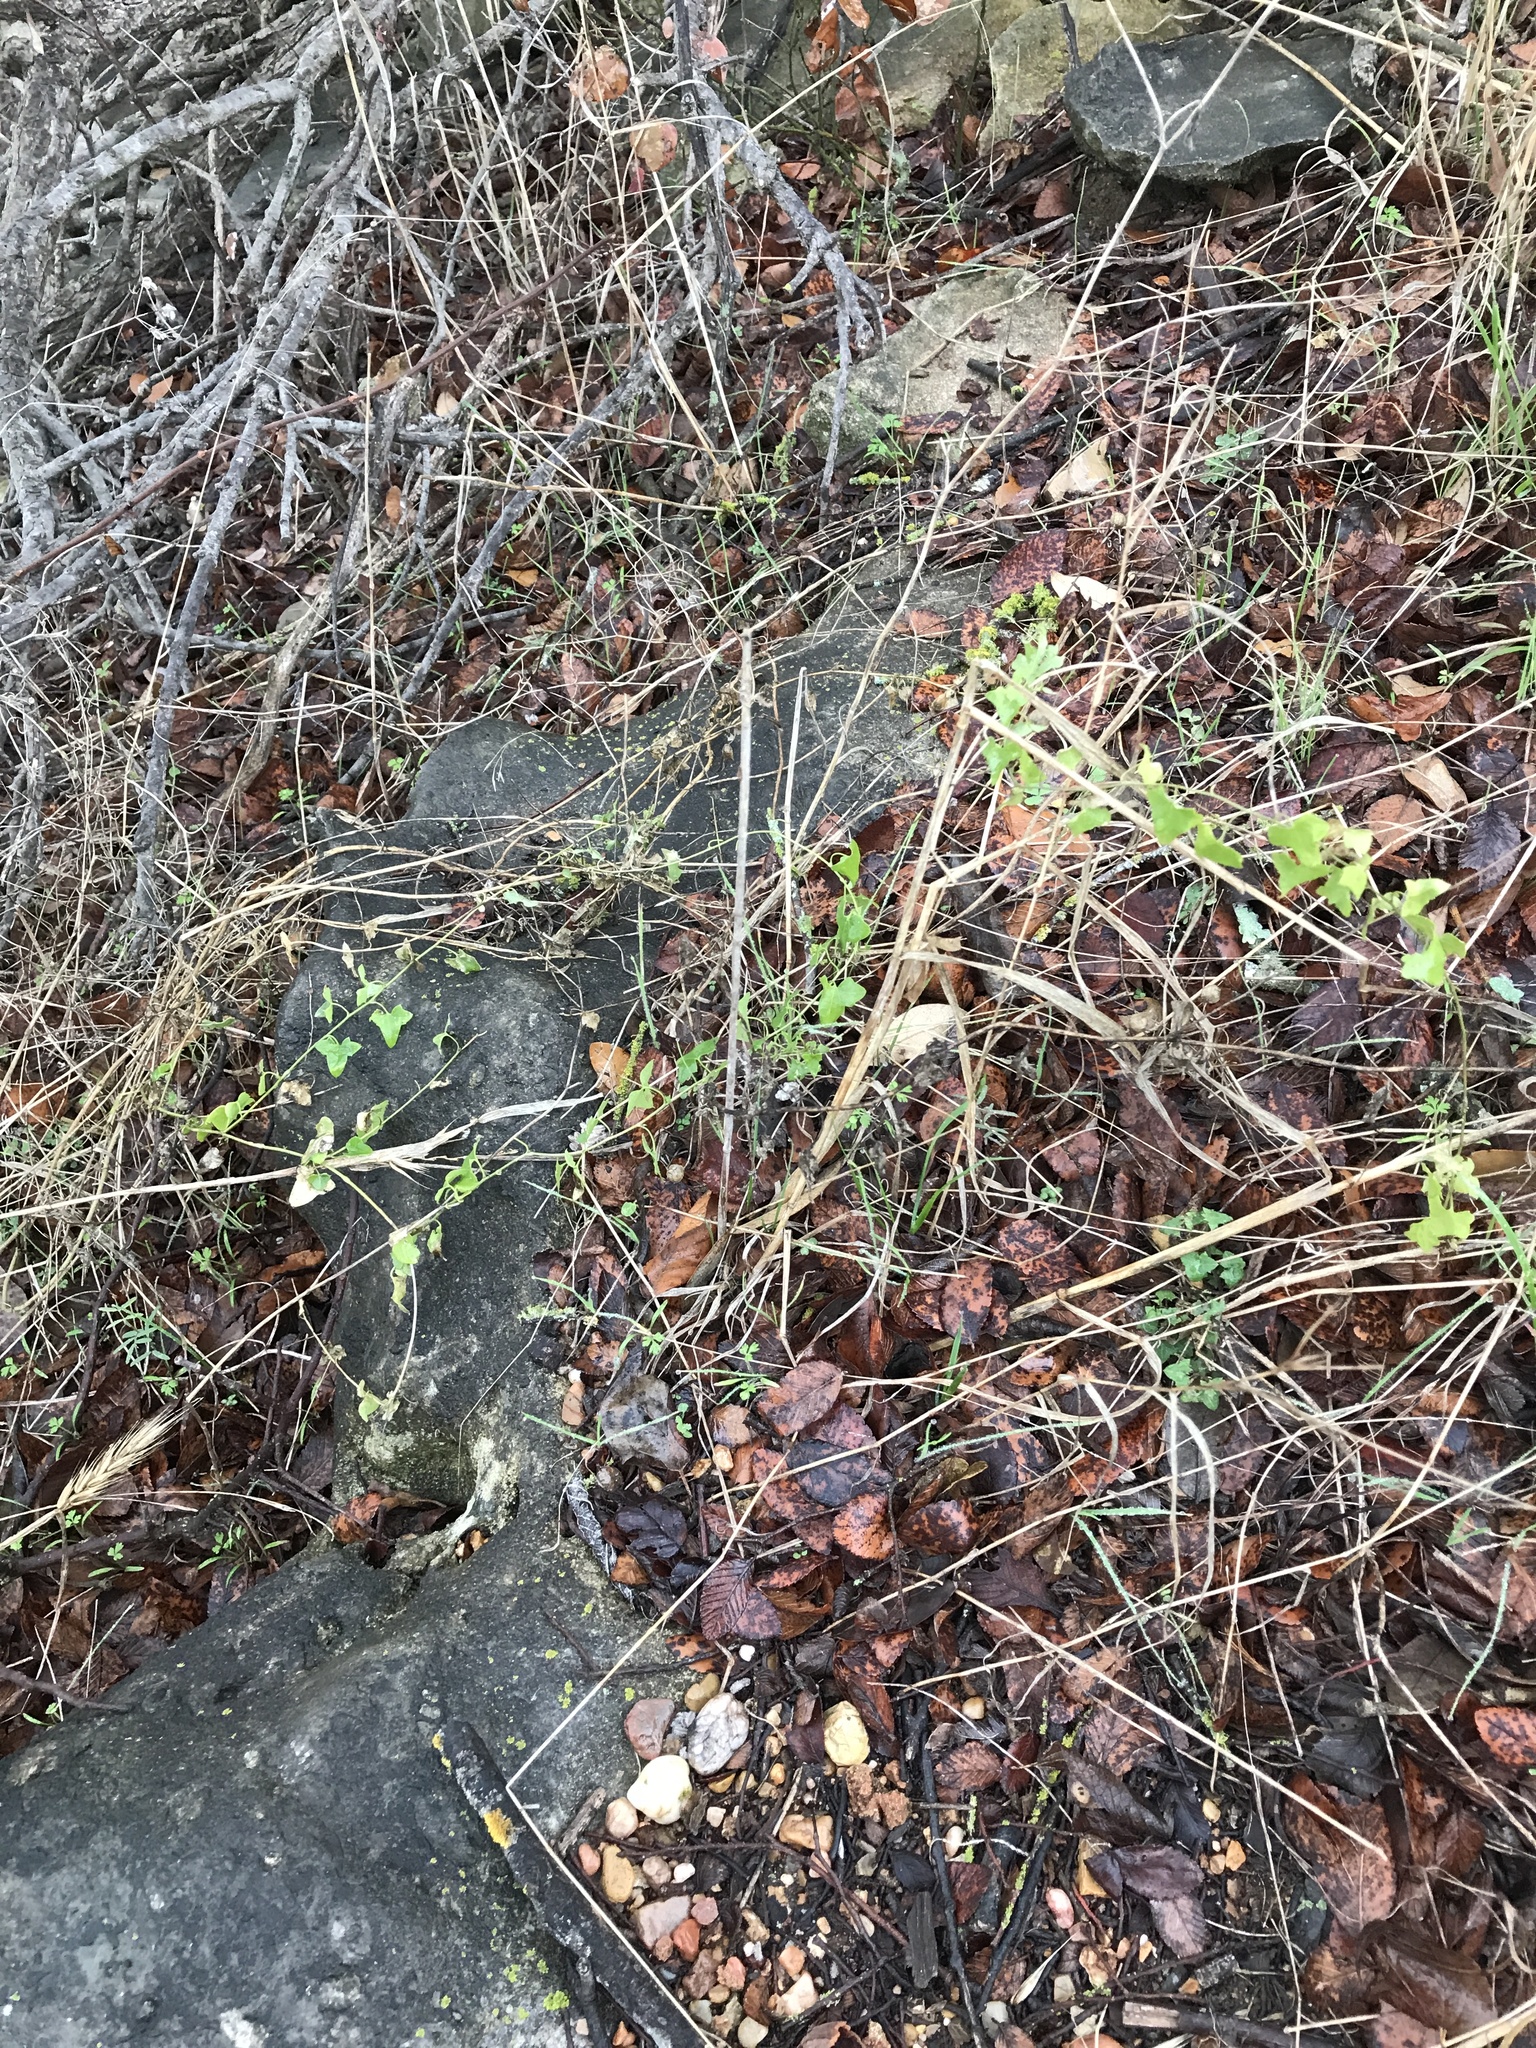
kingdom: Plantae
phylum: Tracheophyta
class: Magnoliopsida
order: Lamiales
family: Plantaginaceae
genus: Maurandella
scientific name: Maurandella antirrhiniflora
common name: Violet twining-snapdragon
